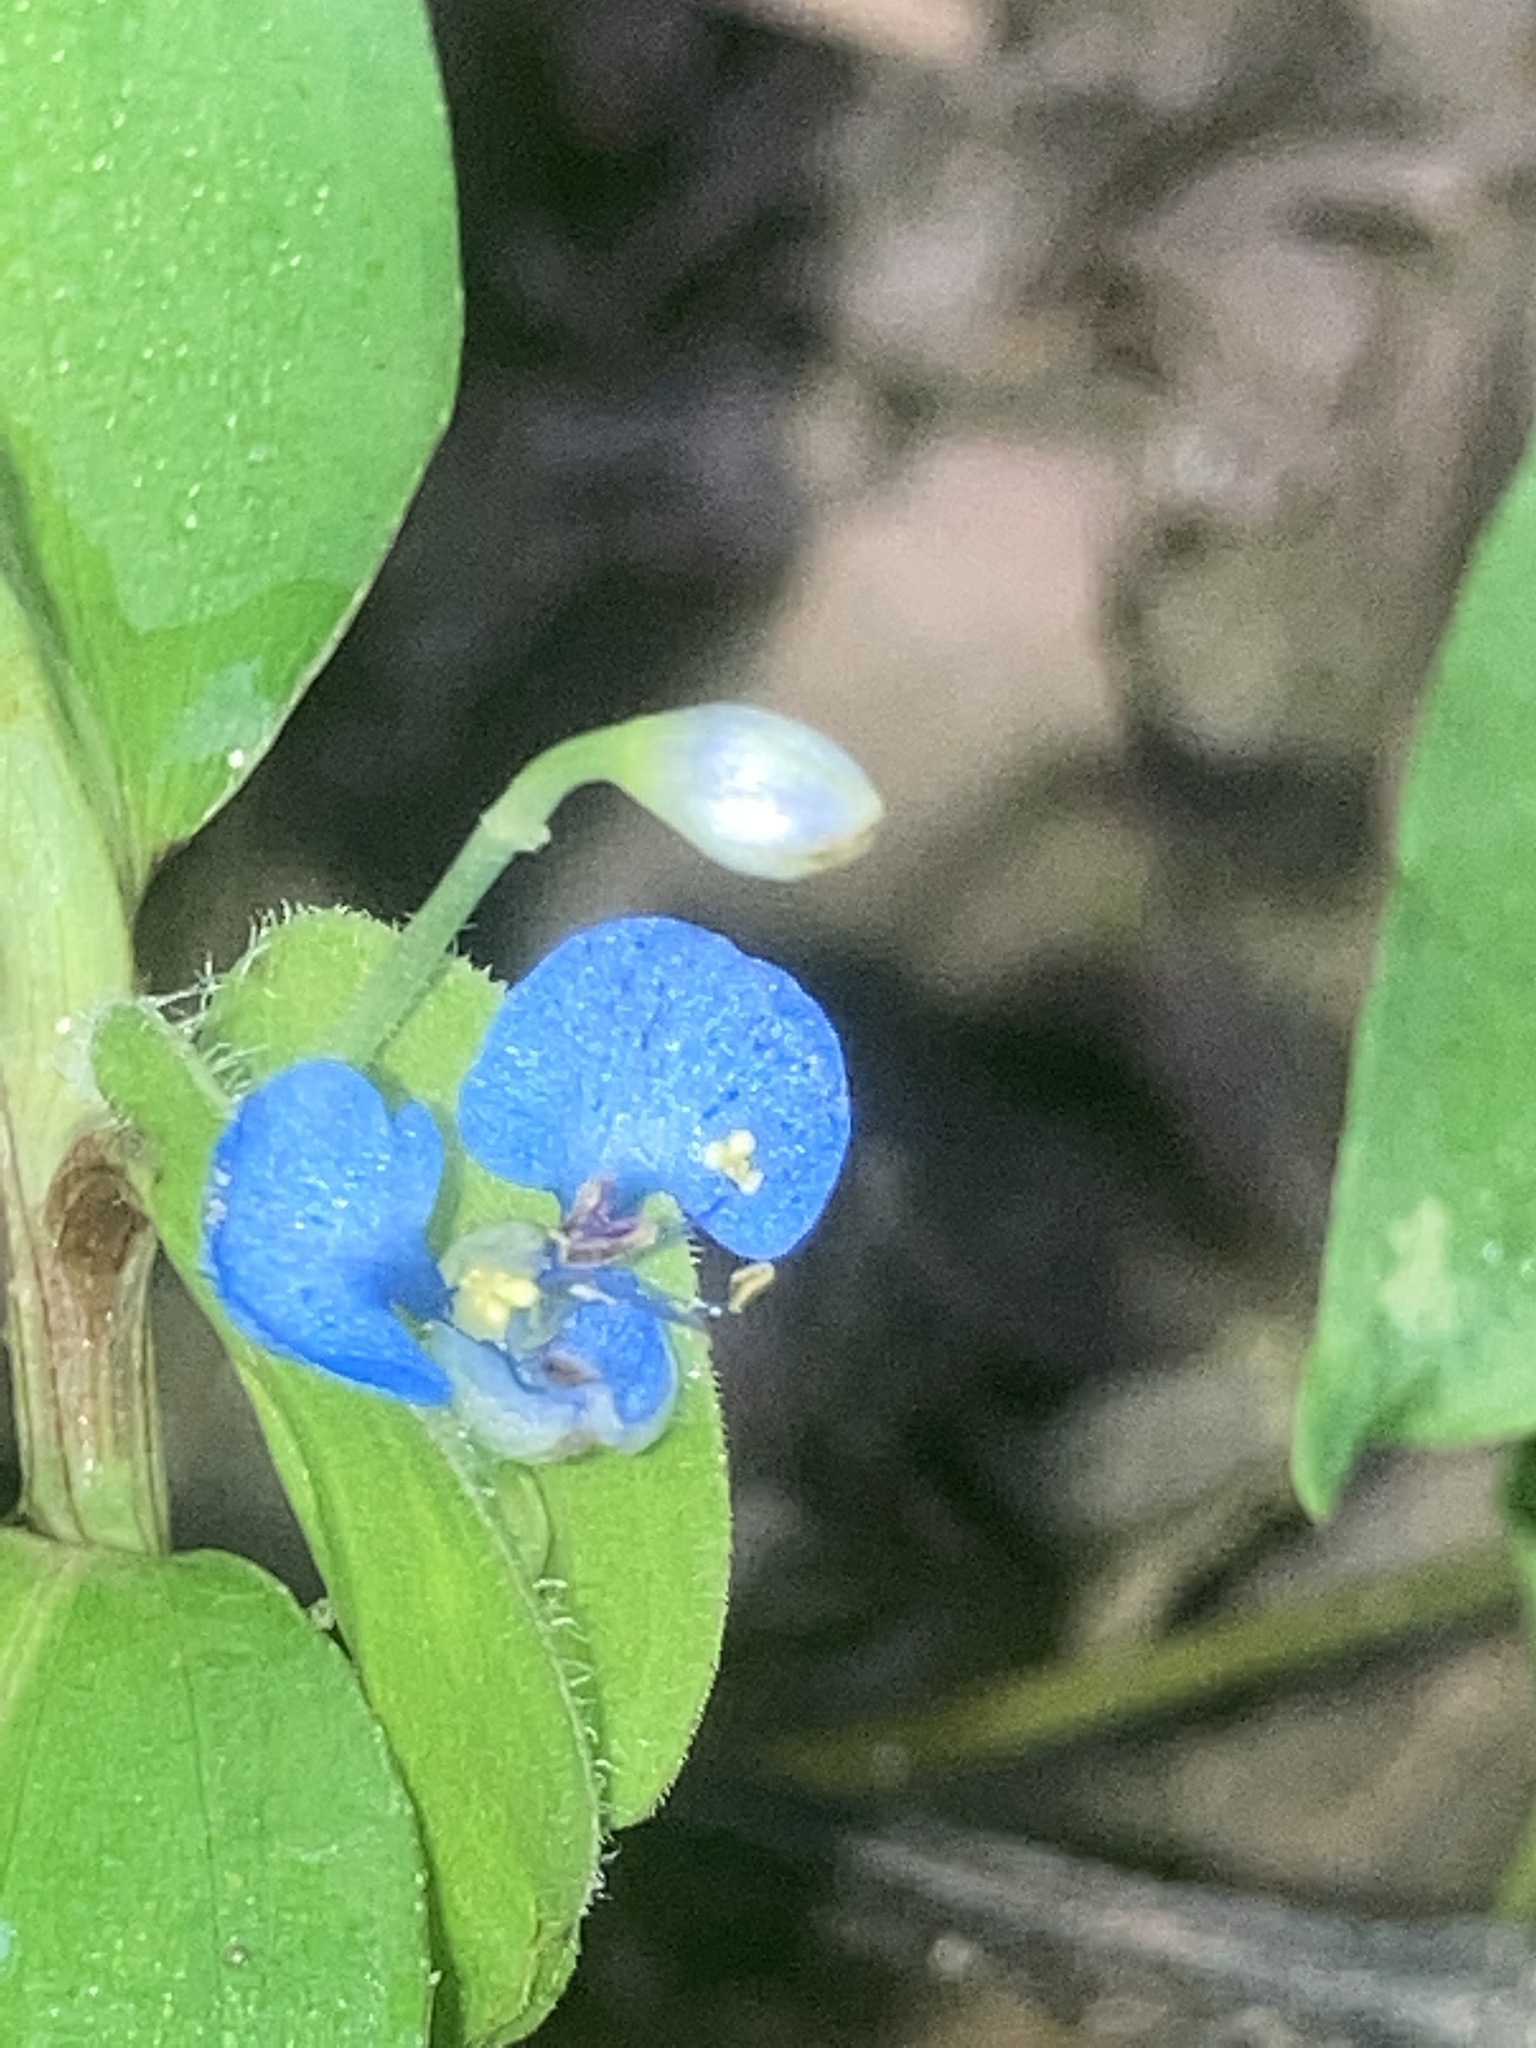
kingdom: Plantae
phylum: Tracheophyta
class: Liliopsida
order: Commelinales
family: Commelinaceae
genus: Commelina
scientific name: Commelina diffusa
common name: Climbing dayflower
